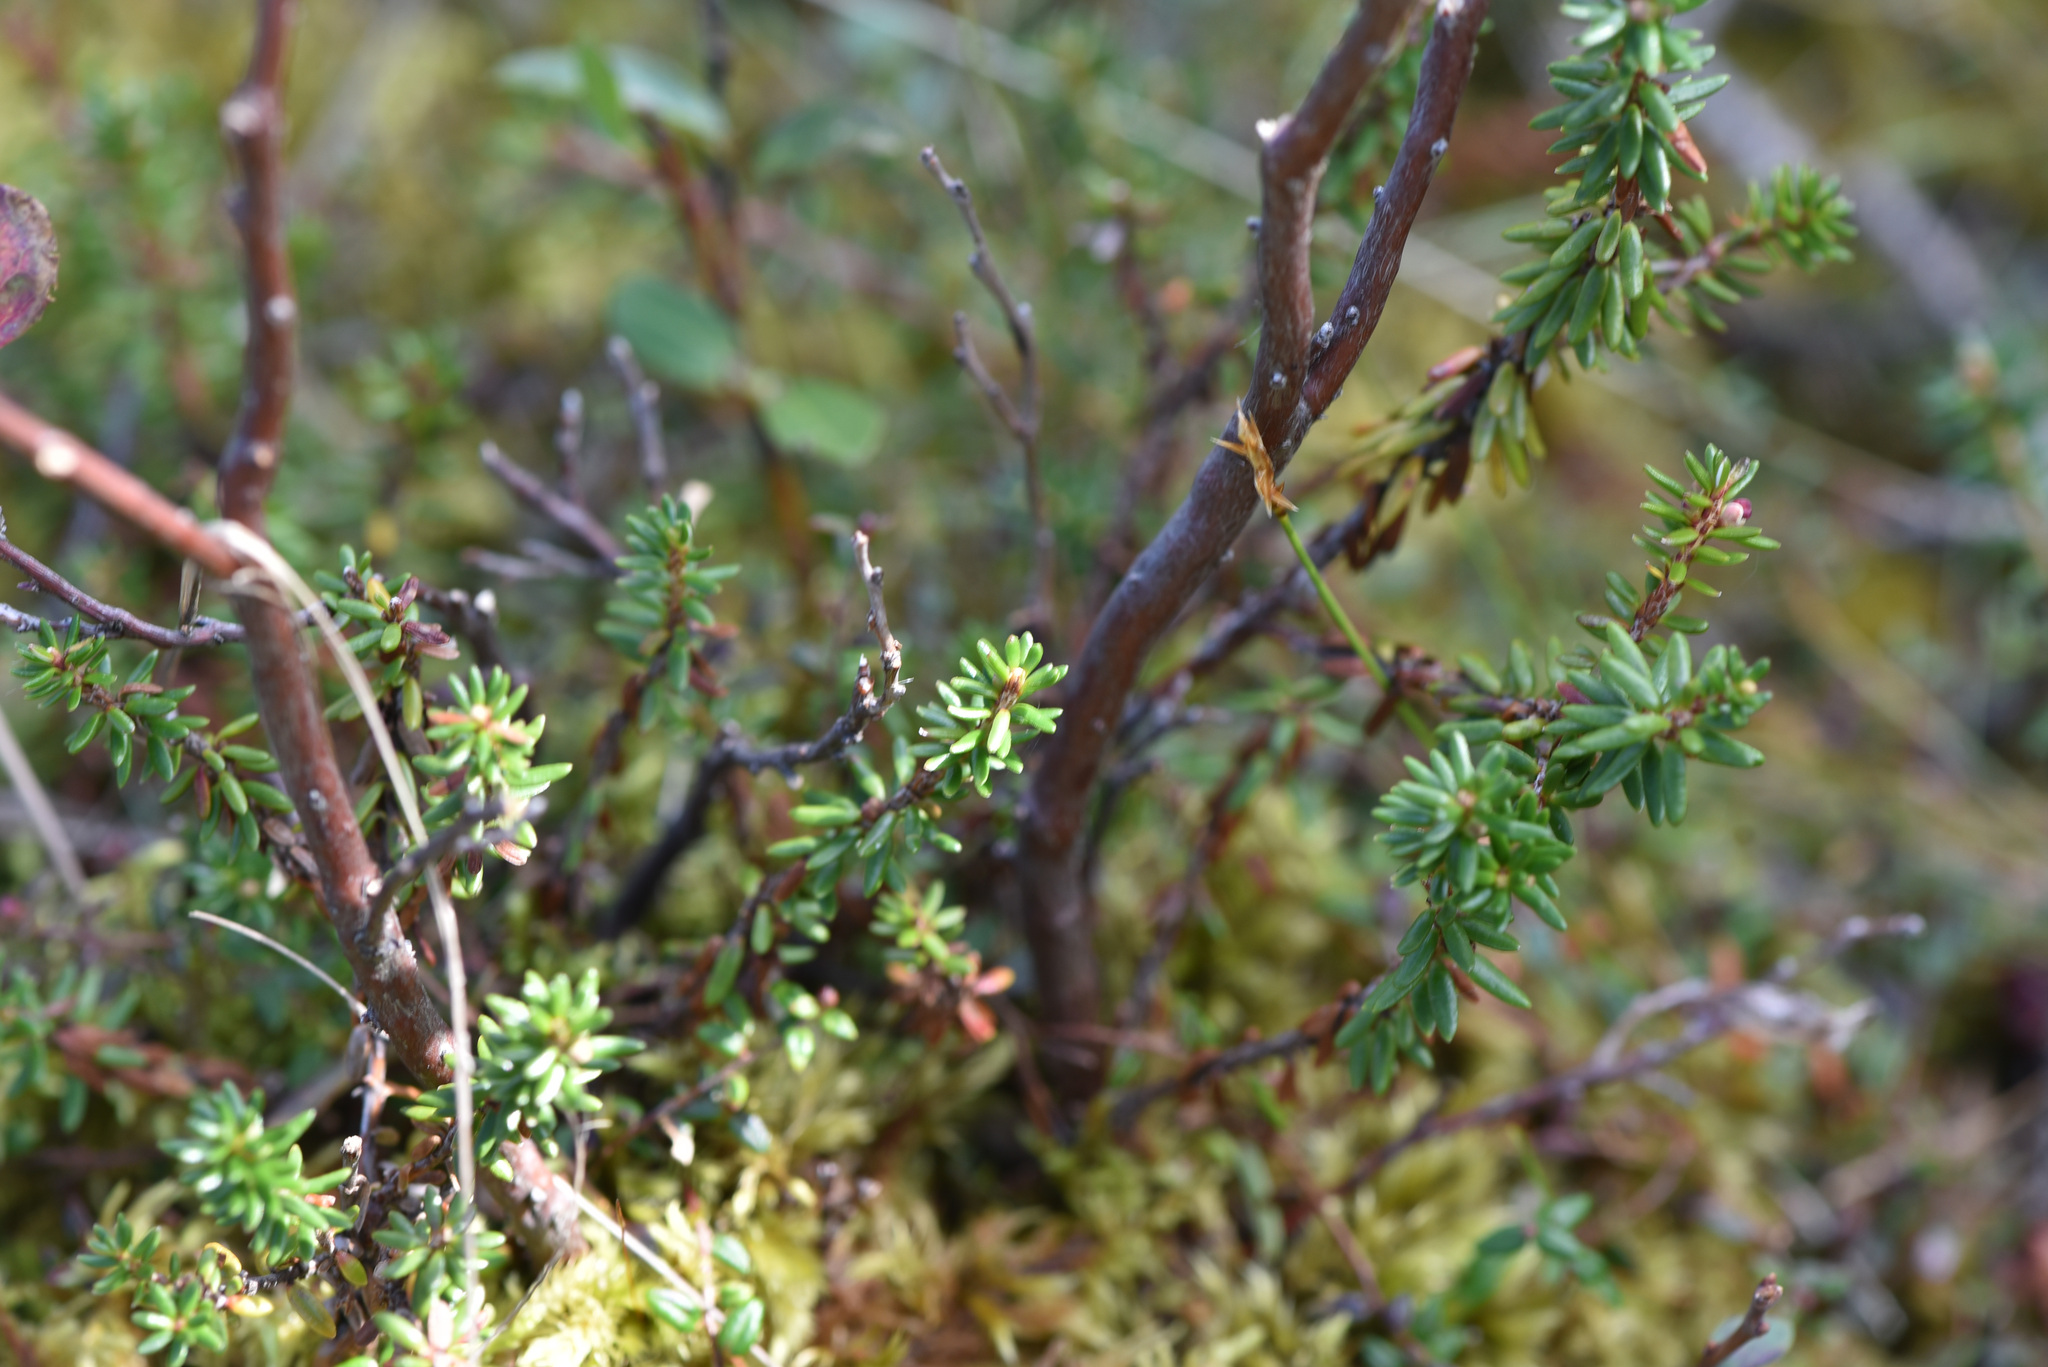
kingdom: Plantae
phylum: Tracheophyta
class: Magnoliopsida
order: Ericales
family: Ericaceae
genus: Empetrum
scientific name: Empetrum nigrum
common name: Black crowberry
